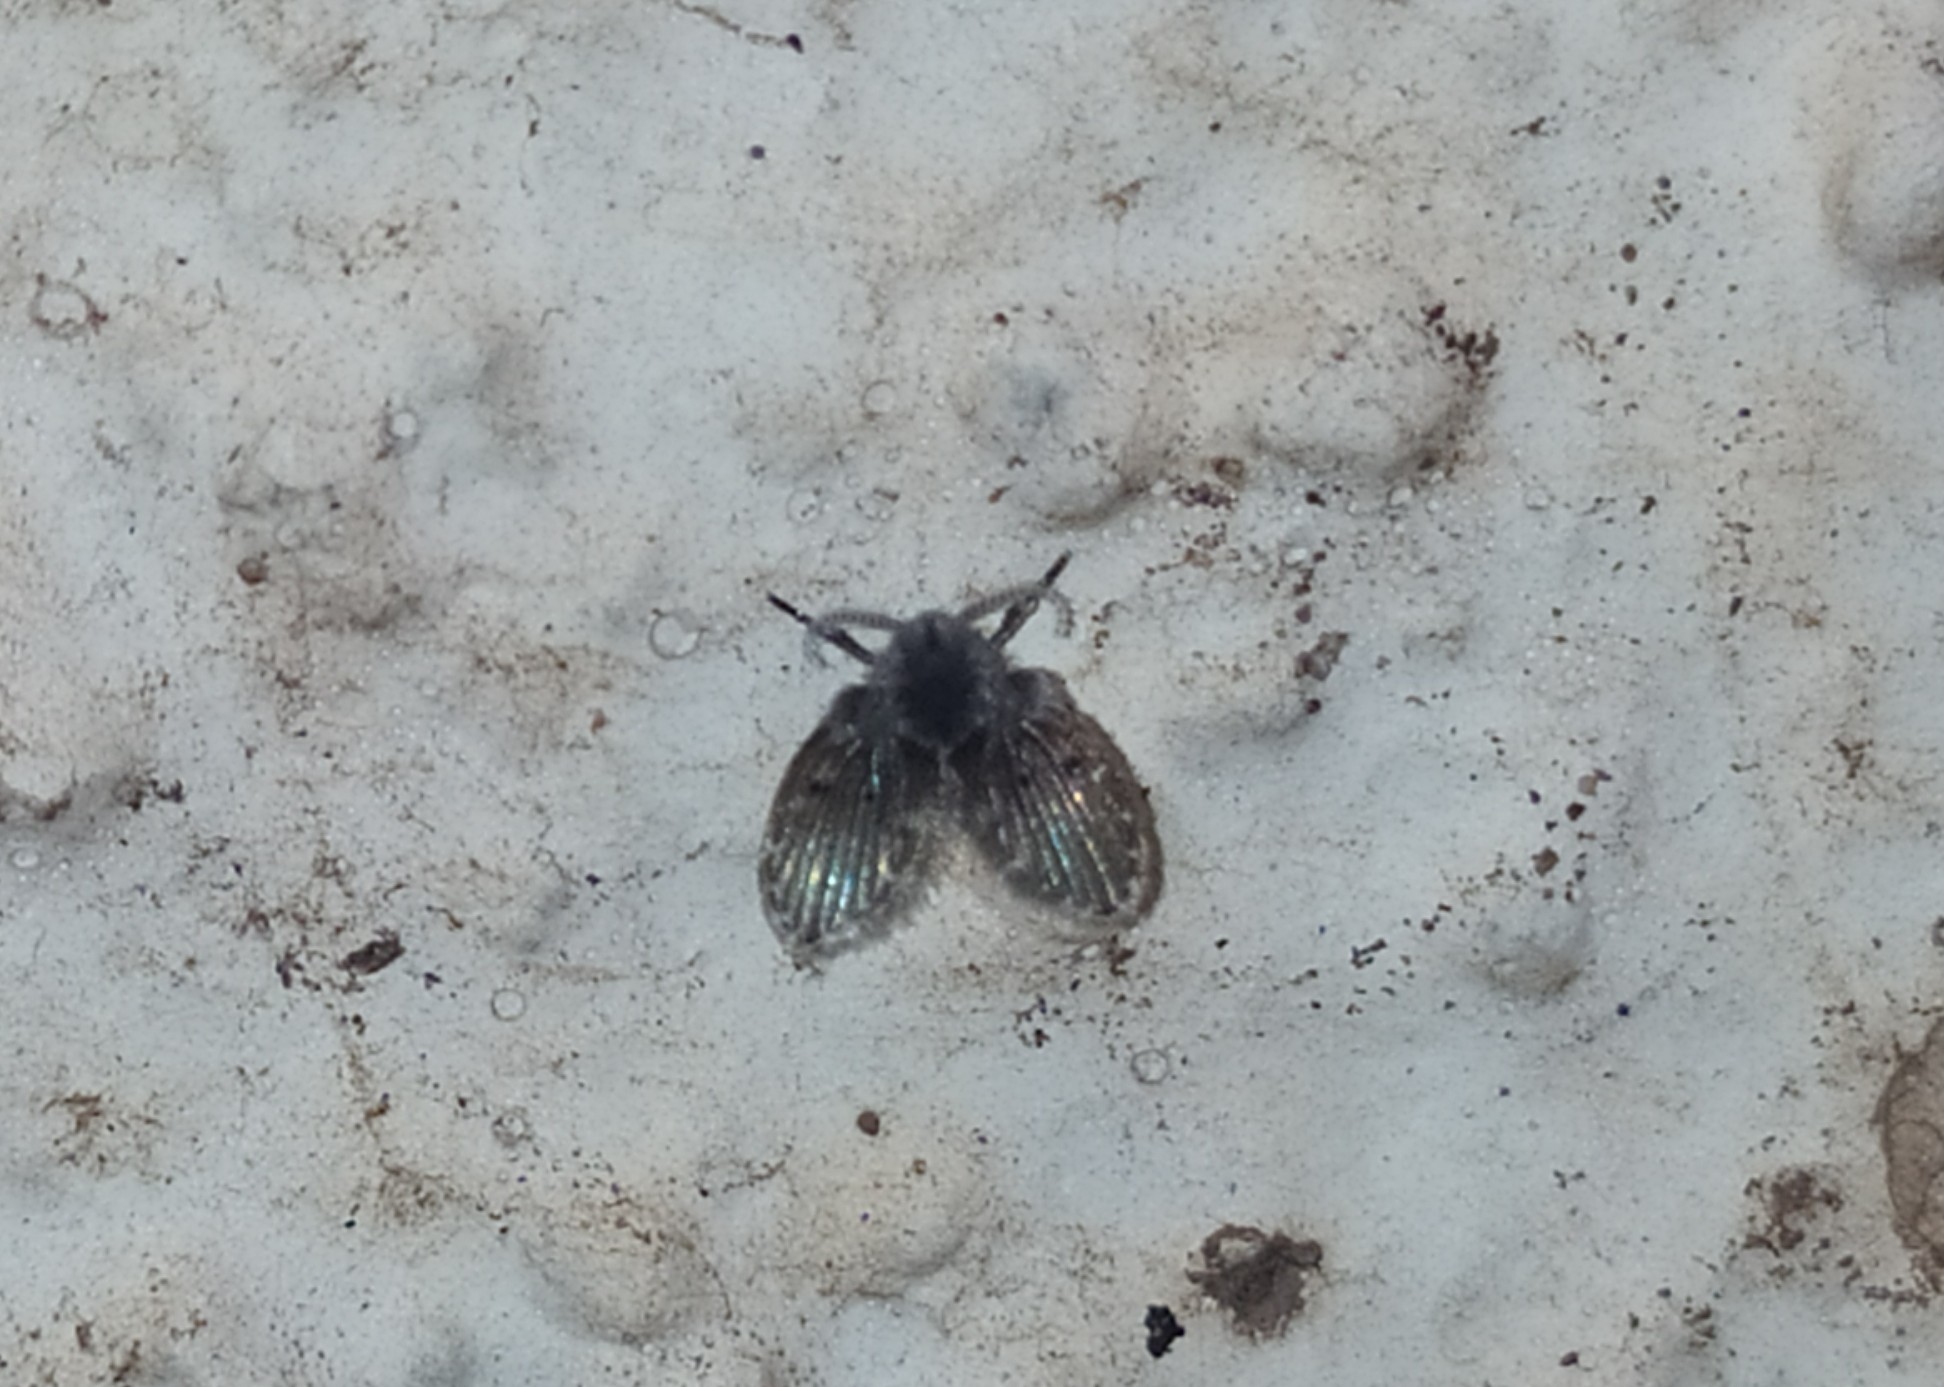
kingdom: Animalia
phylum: Arthropoda
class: Insecta
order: Diptera
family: Psychodidae
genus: Clogmia
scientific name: Clogmia albipunctatus
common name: White-spotted moth fly
